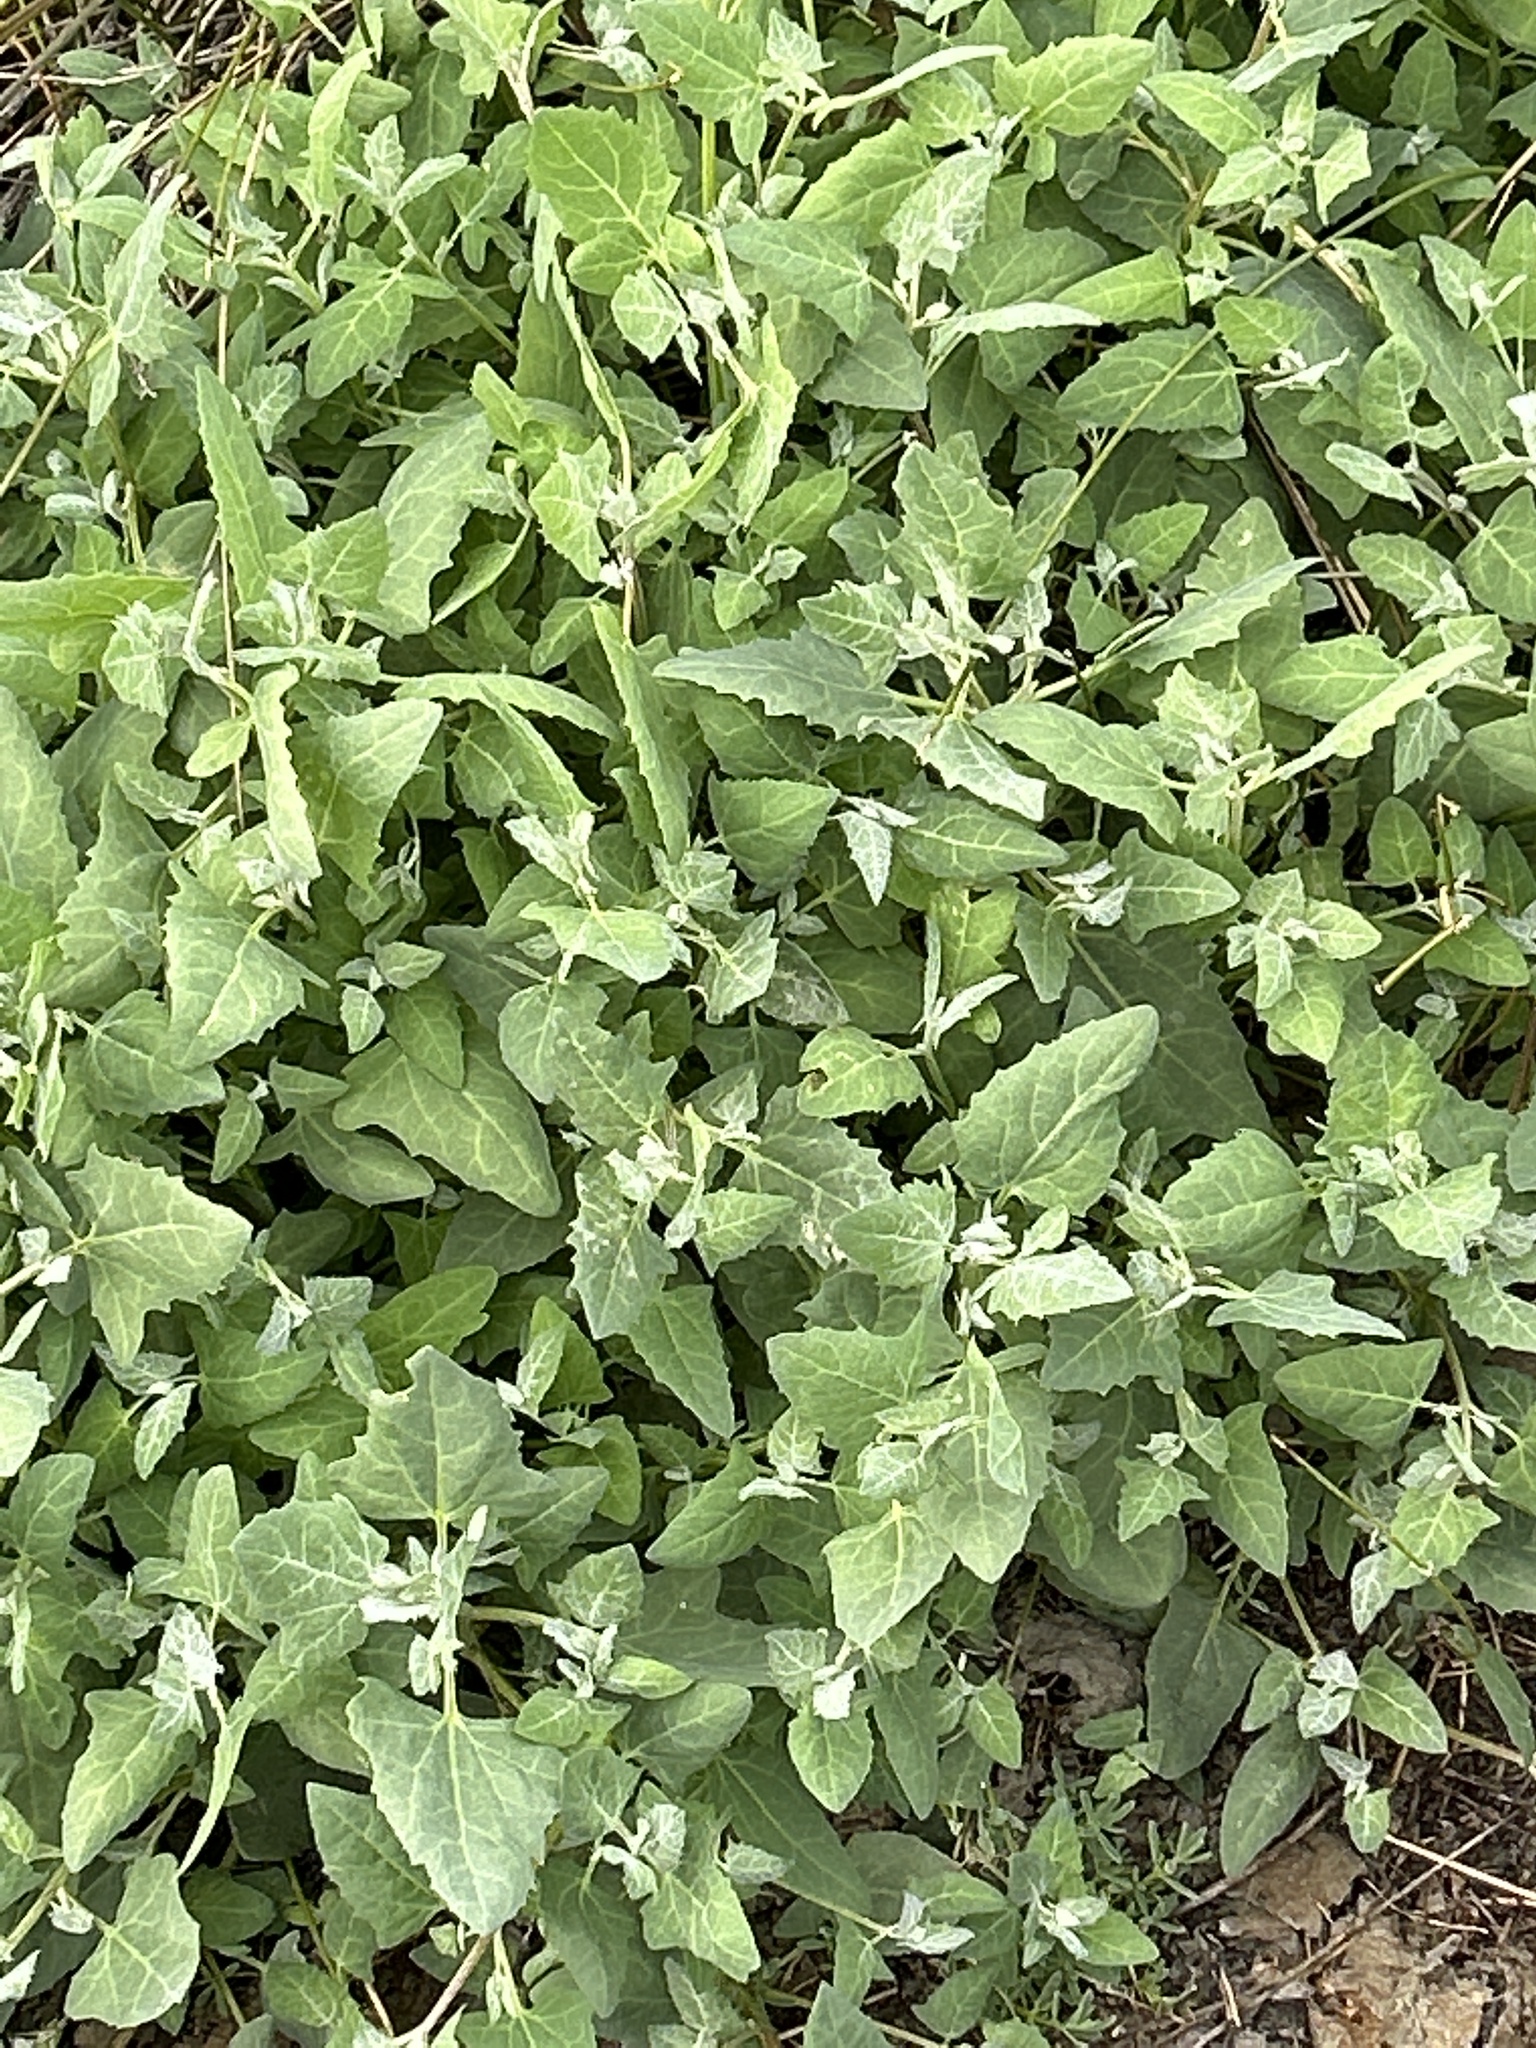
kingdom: Plantae
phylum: Tracheophyta
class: Magnoliopsida
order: Caryophyllales
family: Amaranthaceae
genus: Atriplex
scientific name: Atriplex prostrata
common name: Spear-leaved orache
